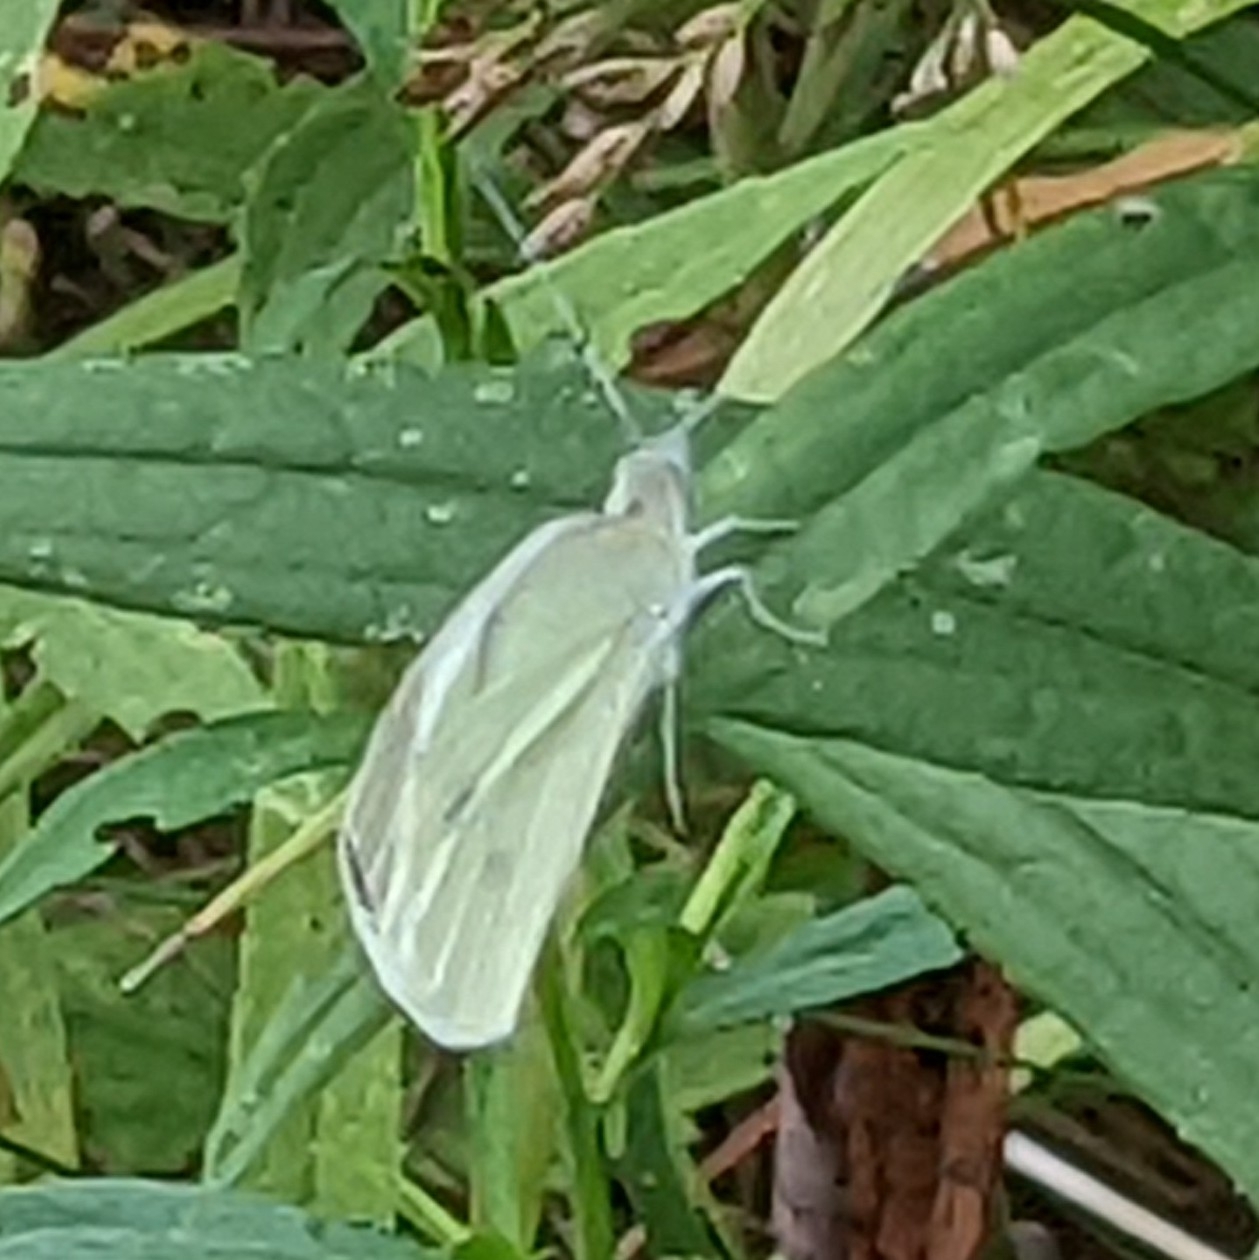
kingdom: Animalia
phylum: Arthropoda
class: Insecta
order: Lepidoptera
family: Pieridae
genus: Pieris
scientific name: Pieris rapae
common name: Small white
